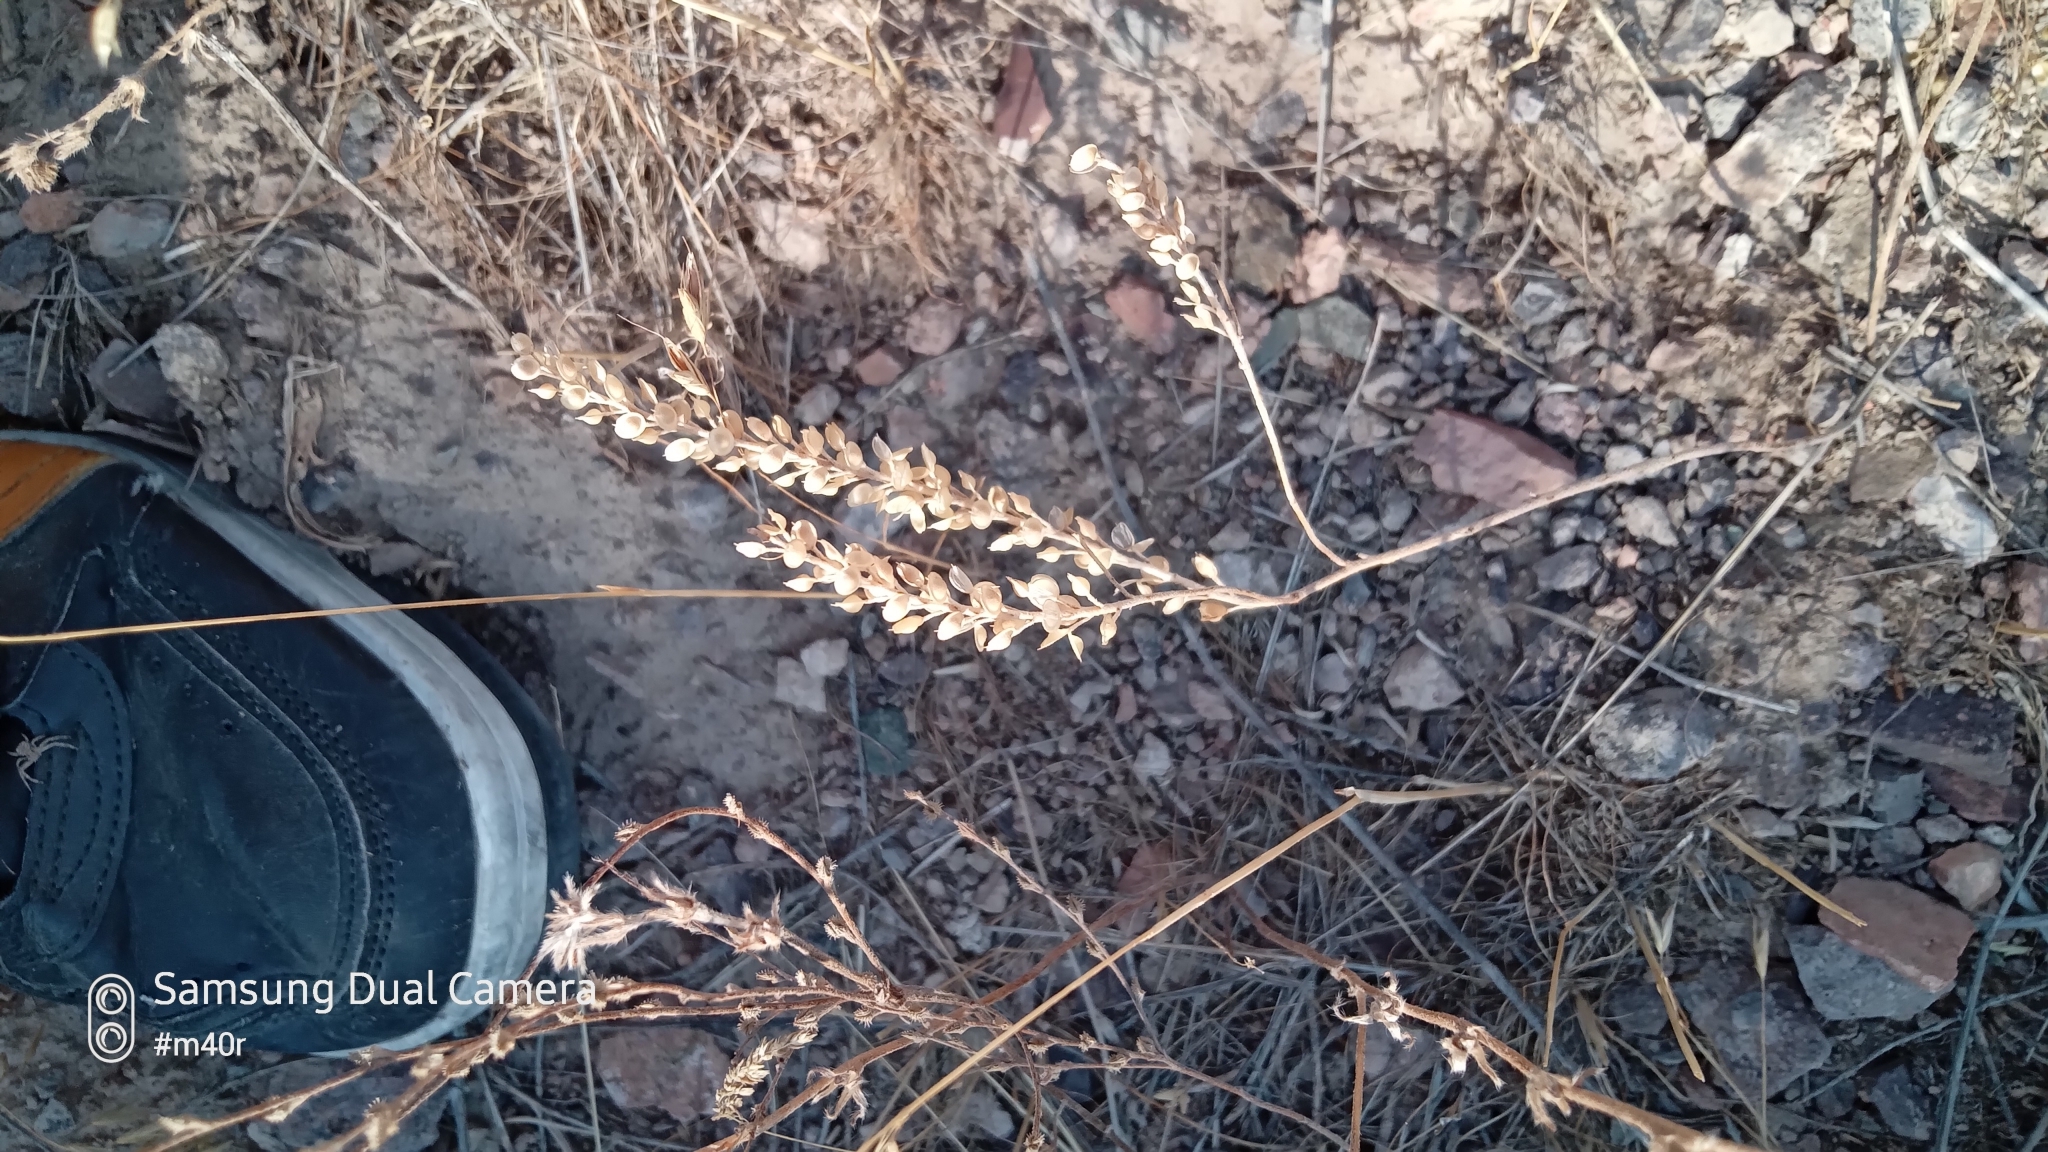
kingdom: Plantae
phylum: Tracheophyta
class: Magnoliopsida
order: Brassicales
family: Brassicaceae
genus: Alyssum
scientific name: Alyssum turkestanicum
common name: Desert alyssum
